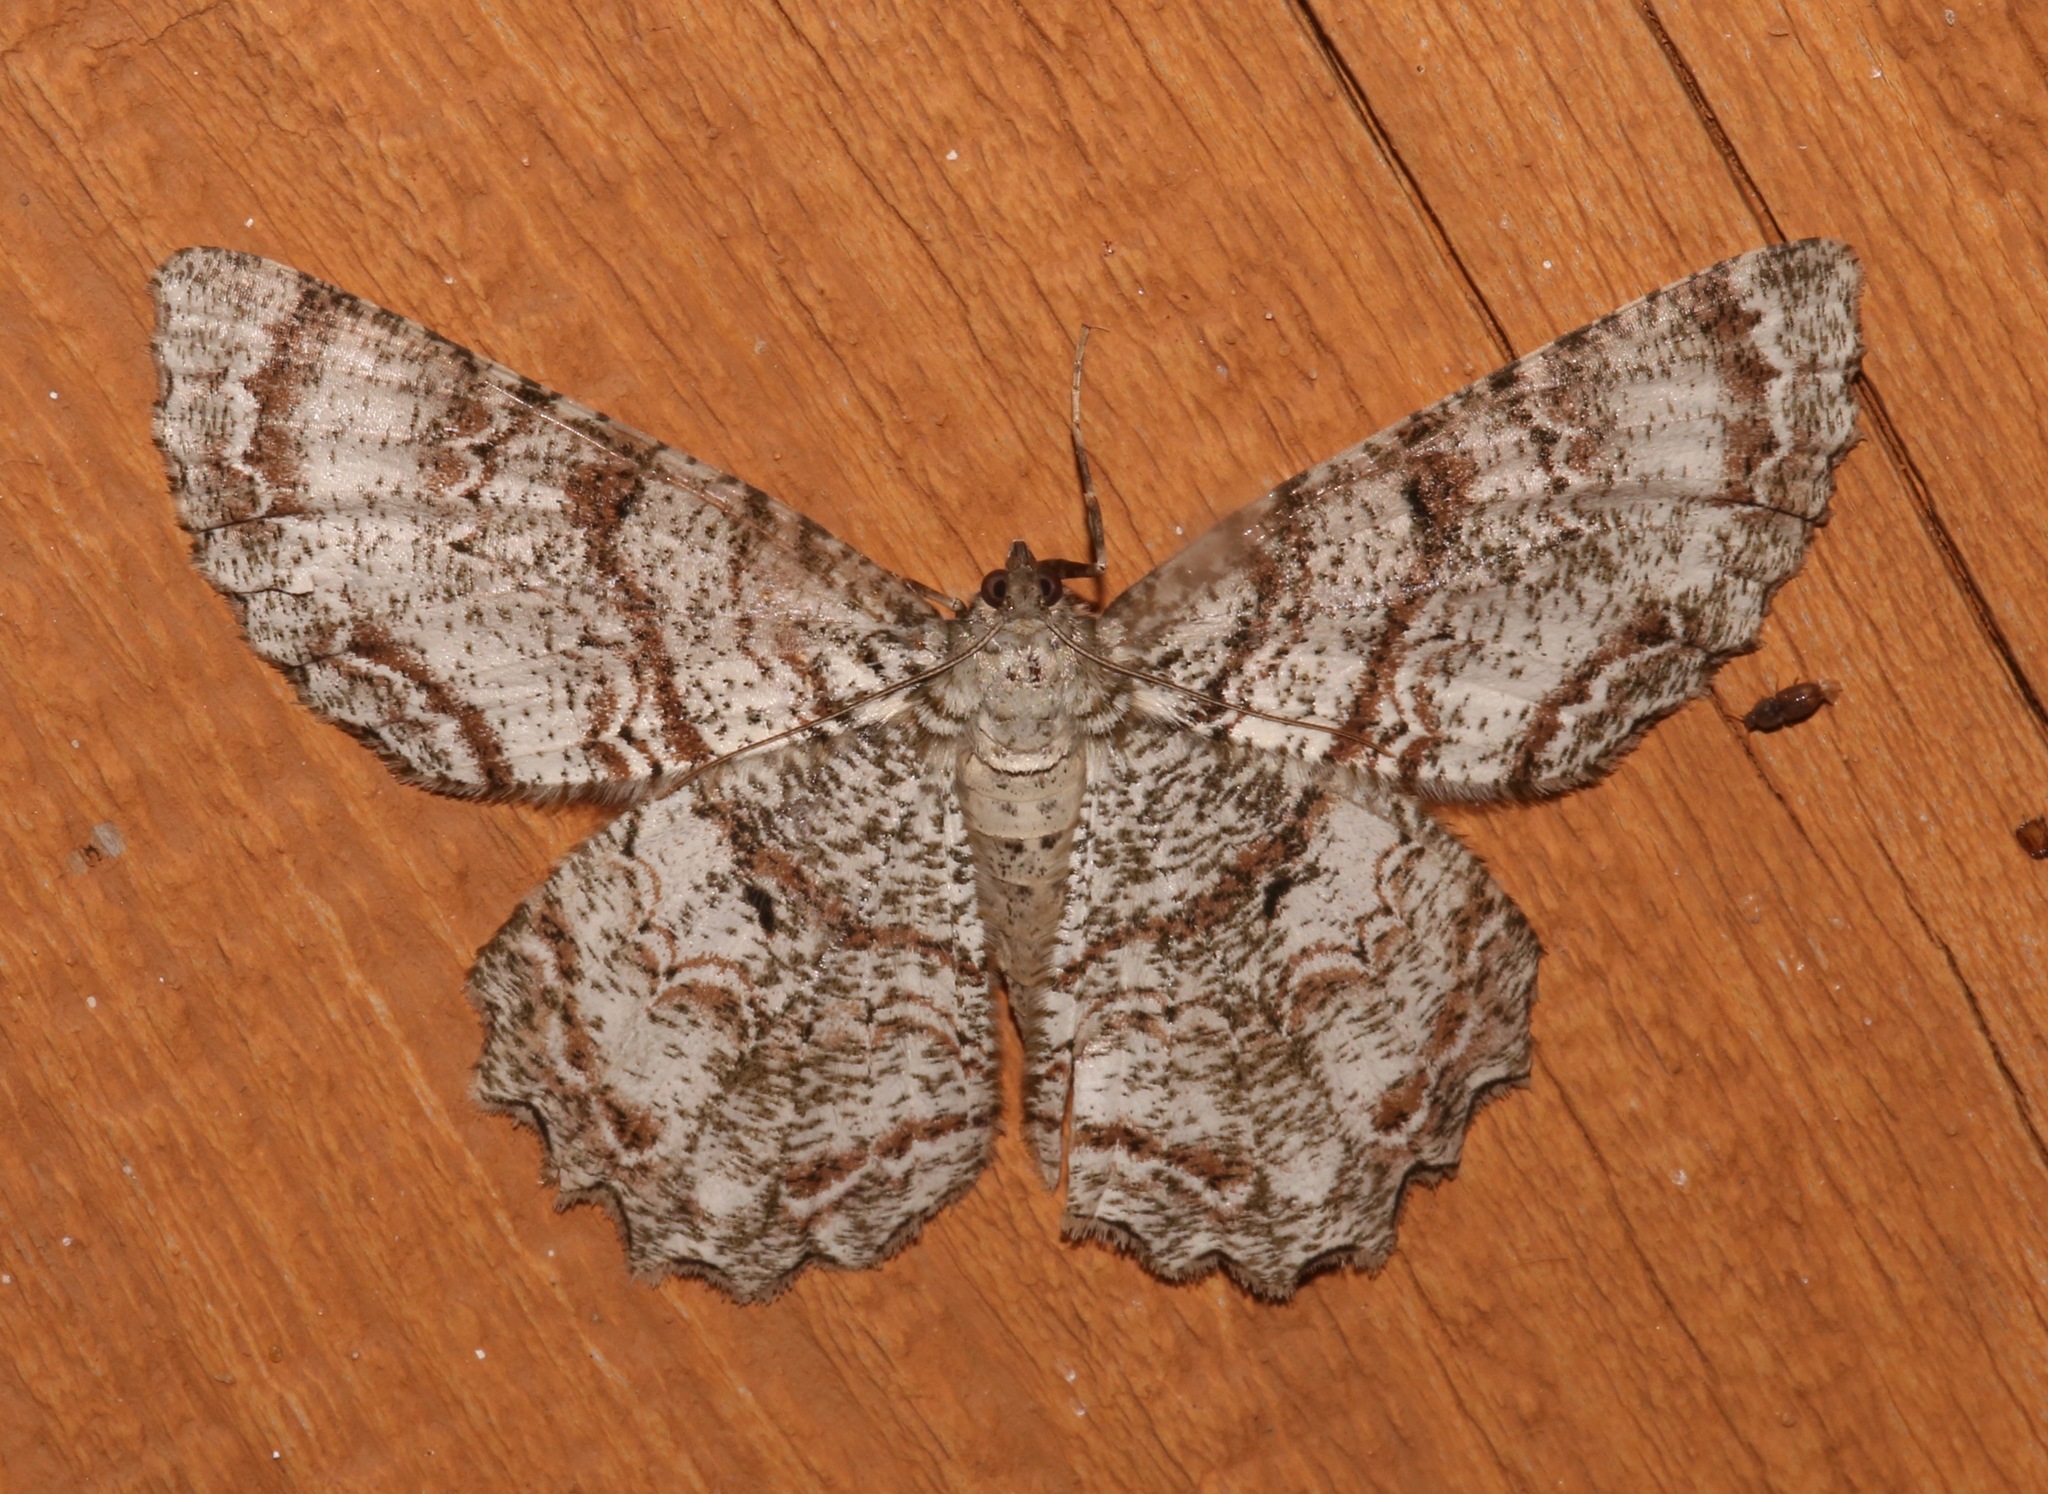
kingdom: Animalia
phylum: Arthropoda
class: Insecta
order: Lepidoptera
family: Geometridae
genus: Epimecis
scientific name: Epimecis hortaria
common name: Tulip-tree beauty
